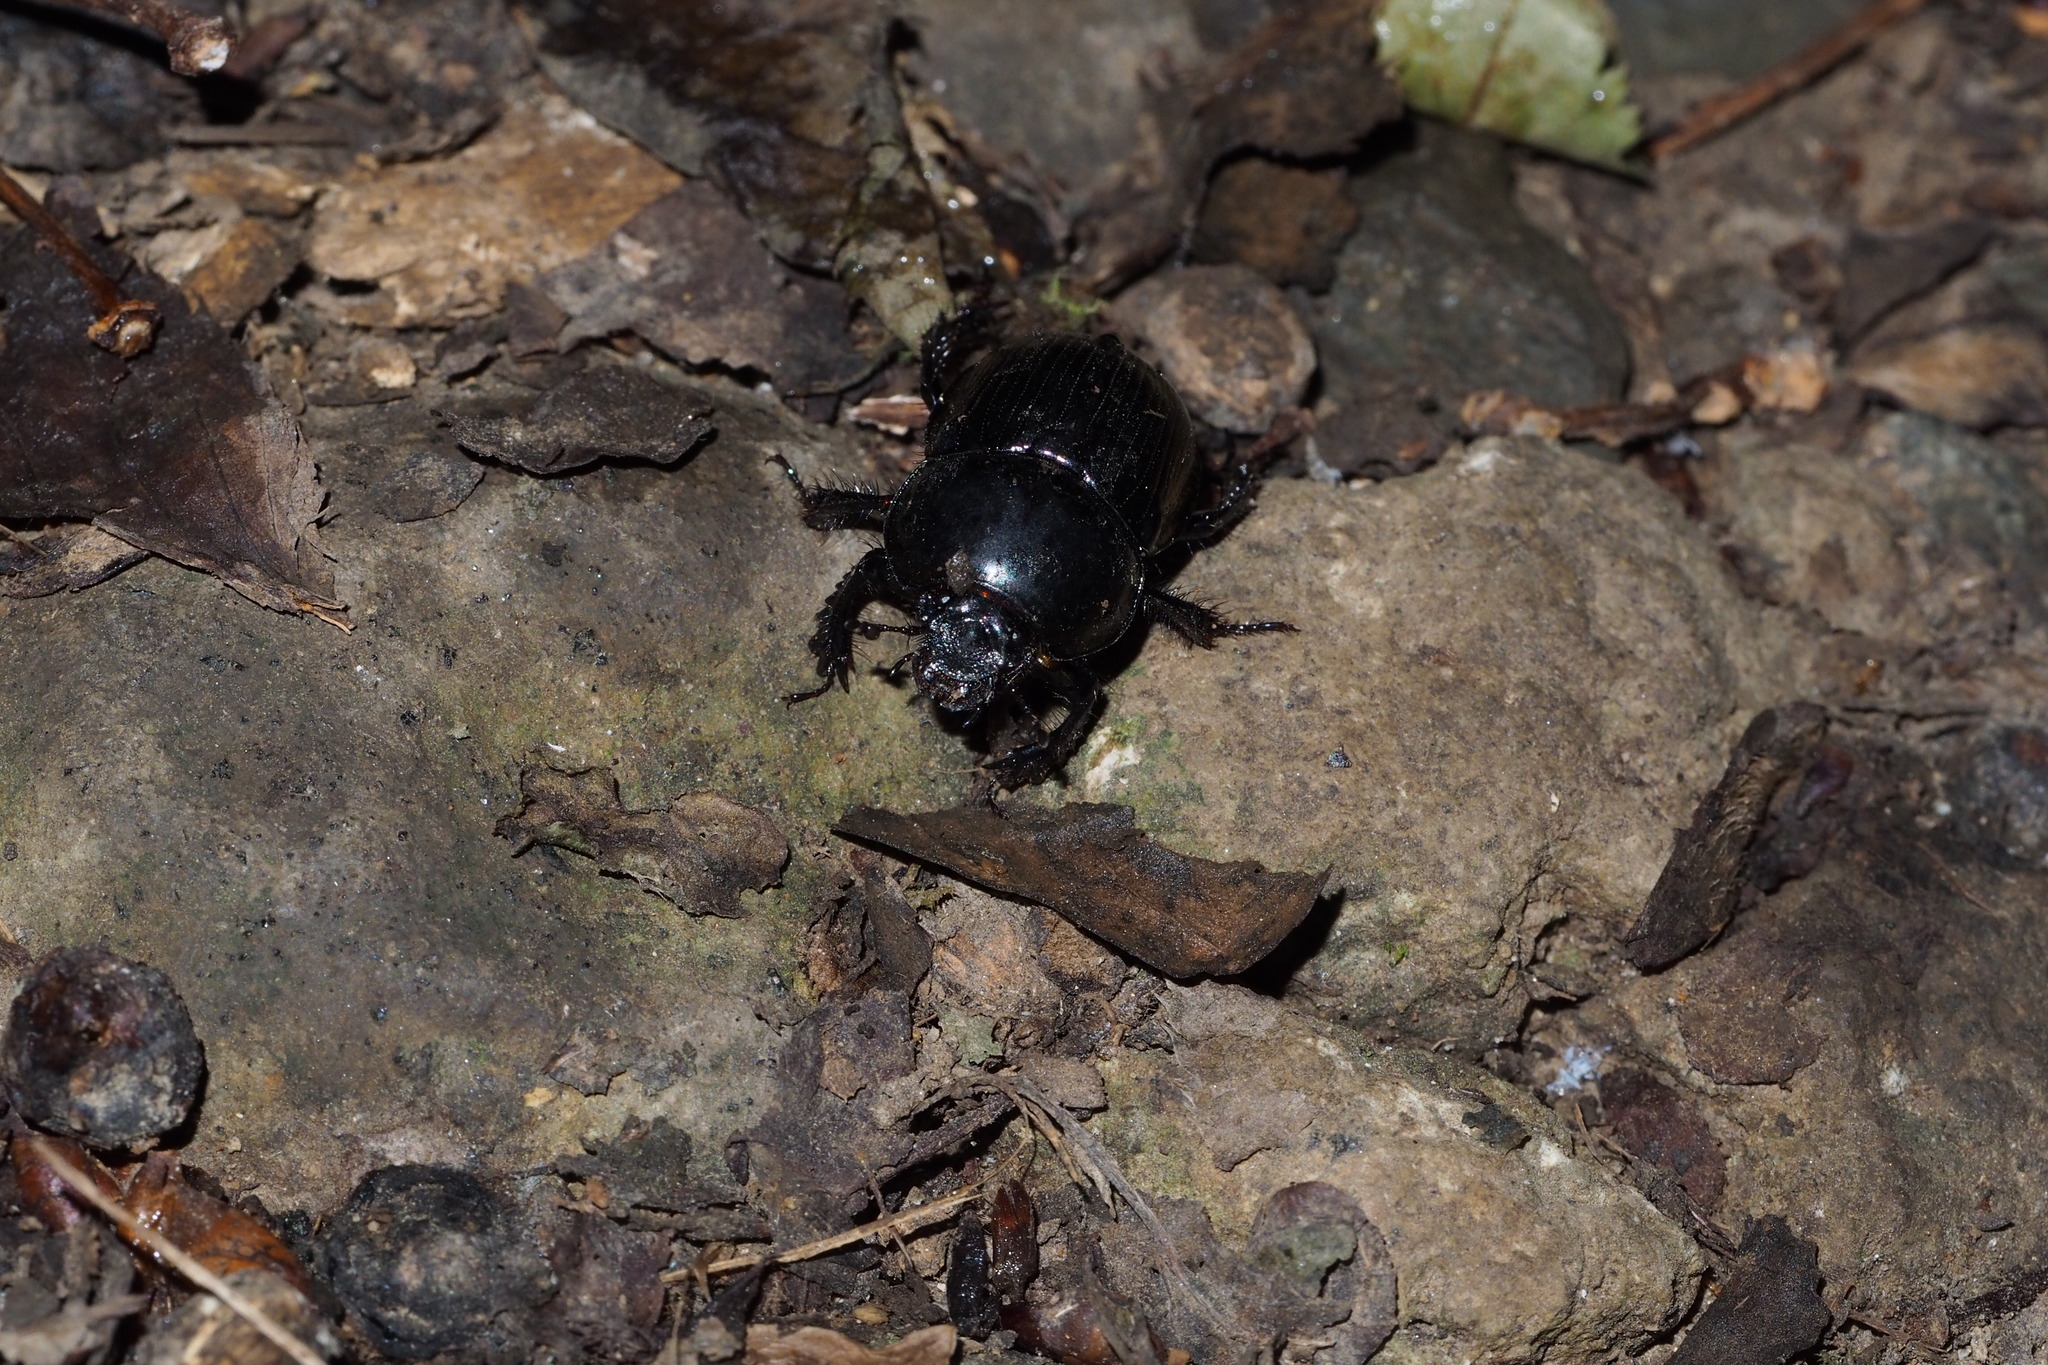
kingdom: Animalia
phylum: Arthropoda
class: Insecta
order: Coleoptera
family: Geotrupidae
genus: Phelotrupes
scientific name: Phelotrupes laevistriatus
